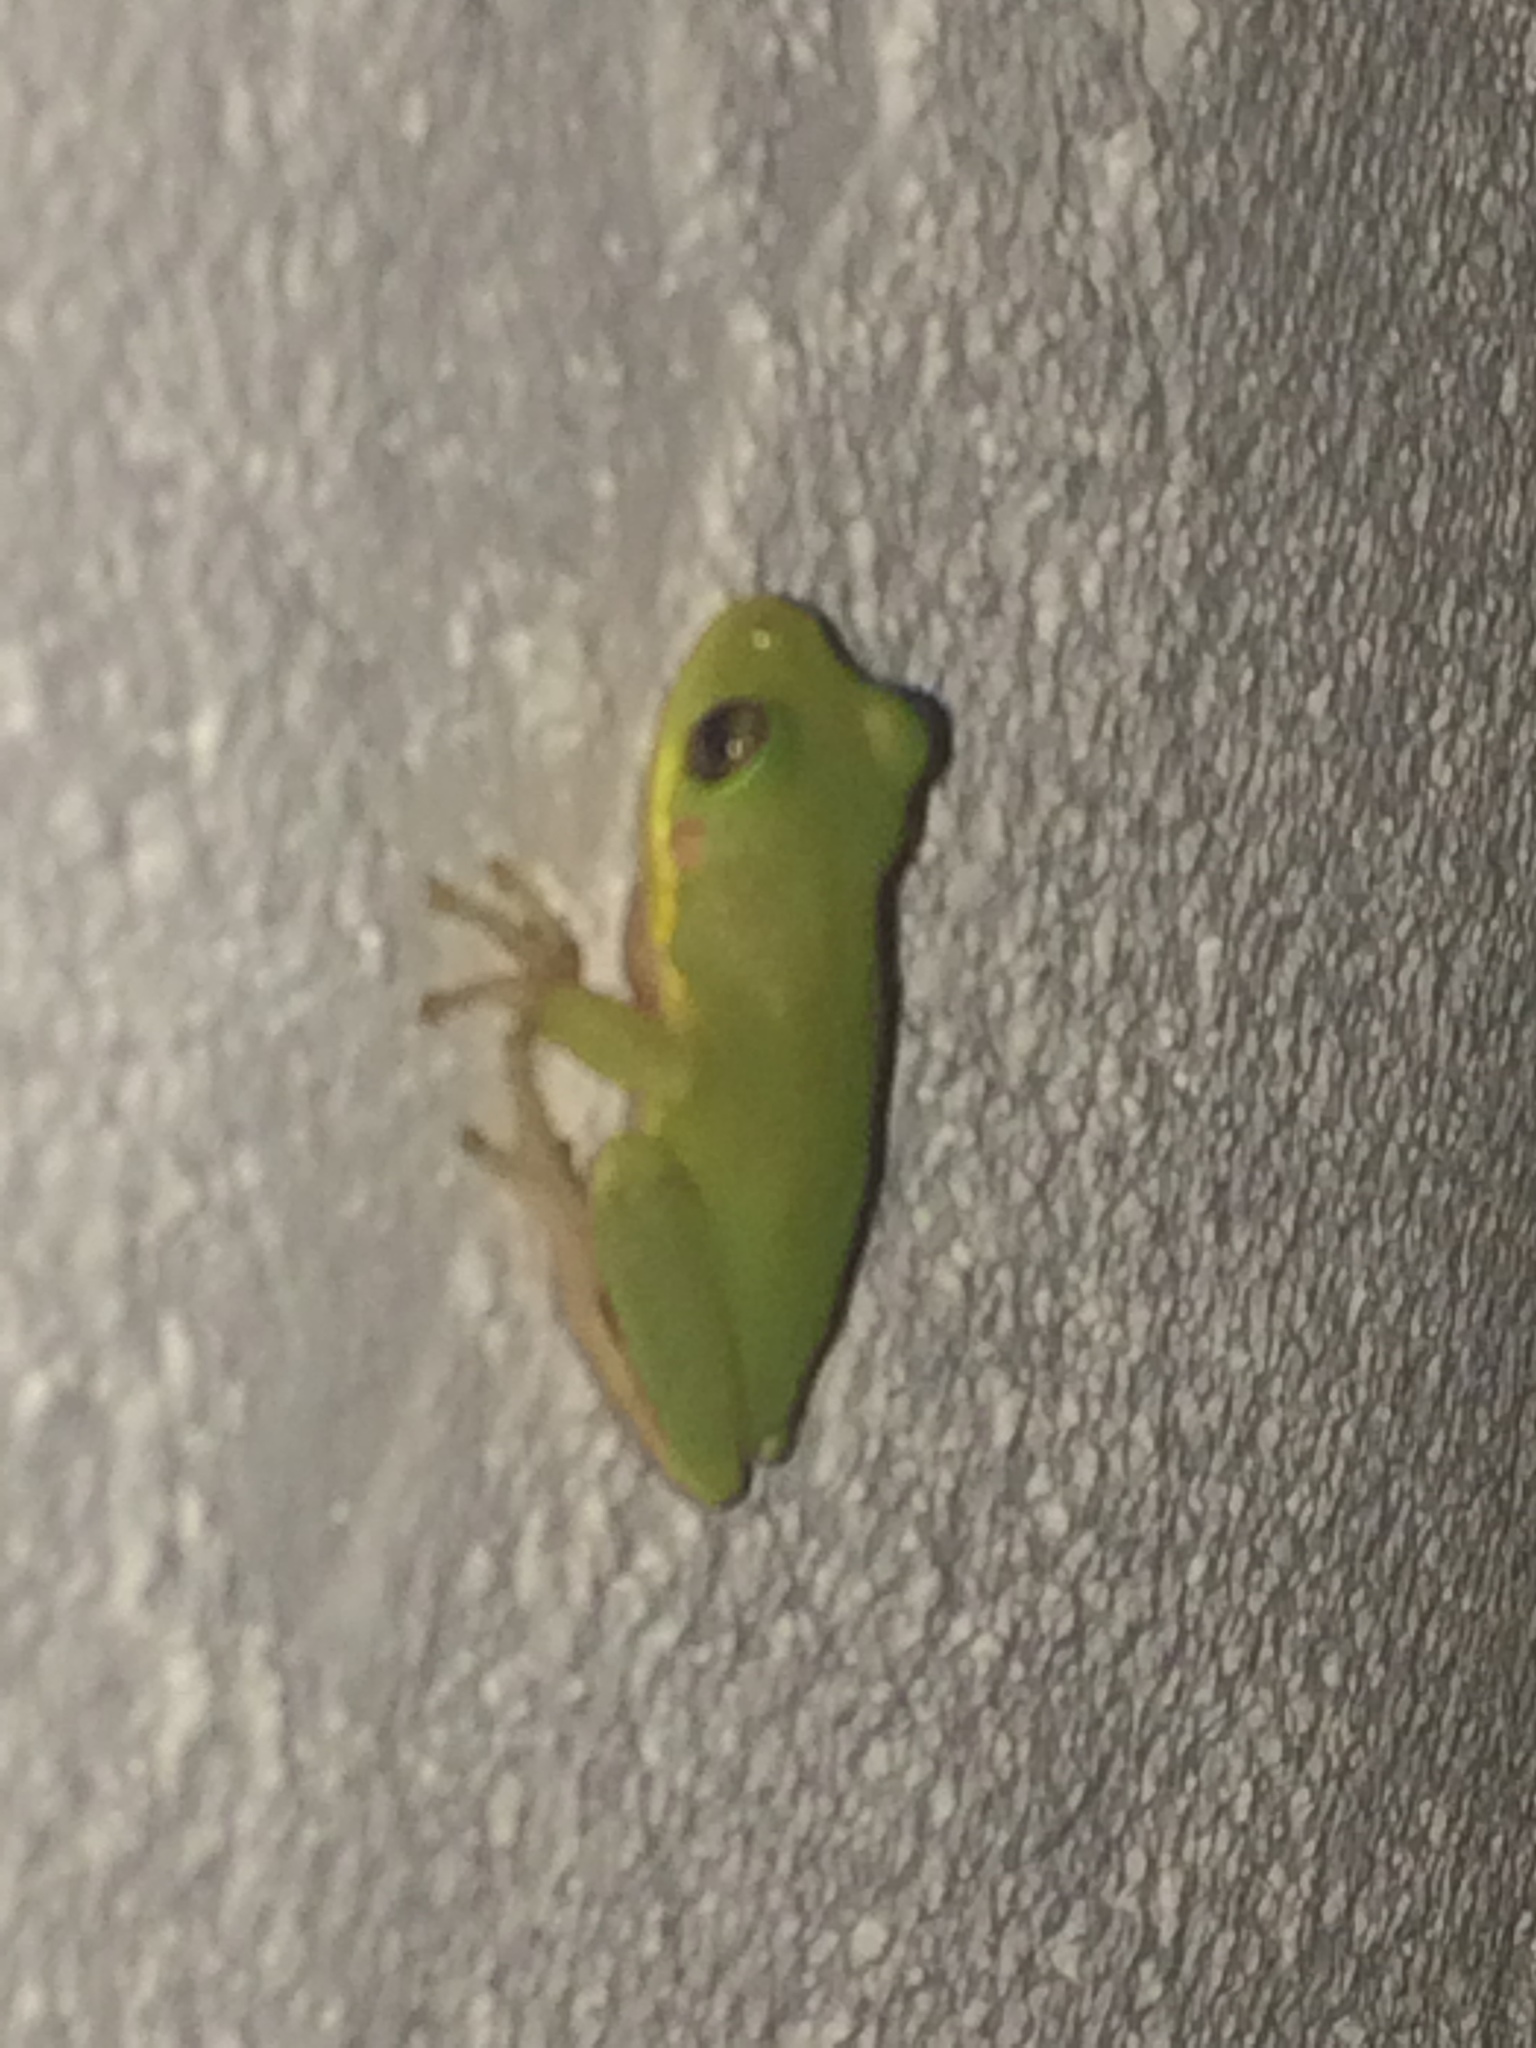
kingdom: Animalia
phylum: Chordata
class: Amphibia
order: Anura
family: Hylidae
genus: Dryophytes
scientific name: Dryophytes squirellus
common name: Squirrel treefrog
